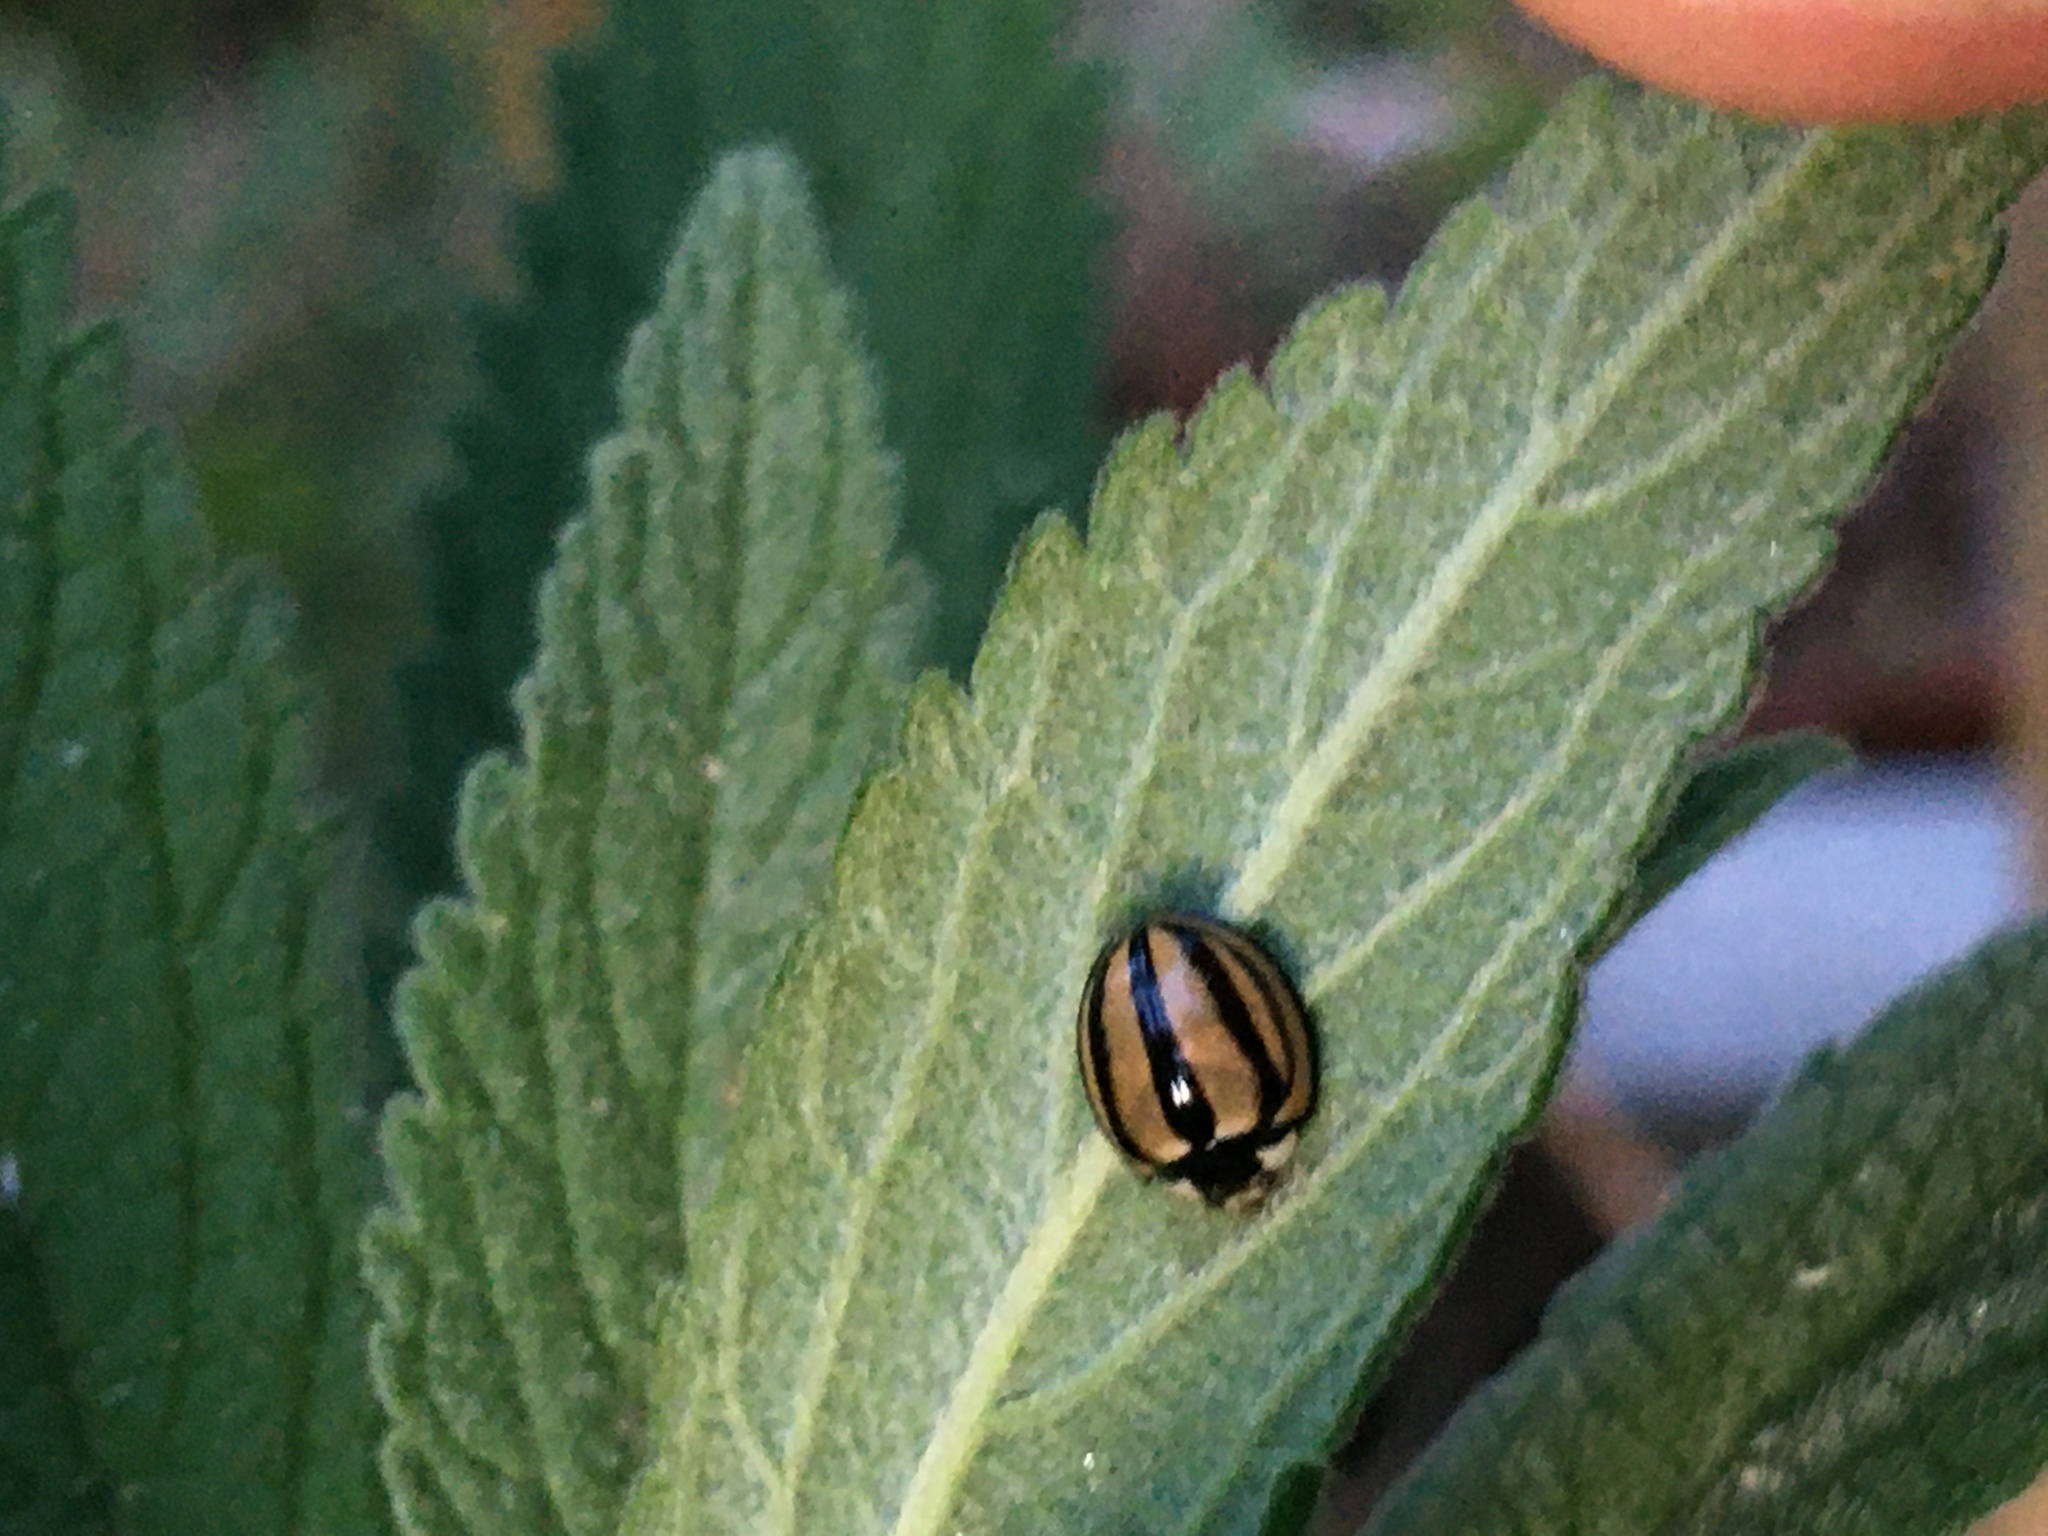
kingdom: Animalia
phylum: Arthropoda
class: Insecta
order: Coleoptera
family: Coccinellidae
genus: Cheilomenes
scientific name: Cheilomenes propinqua
